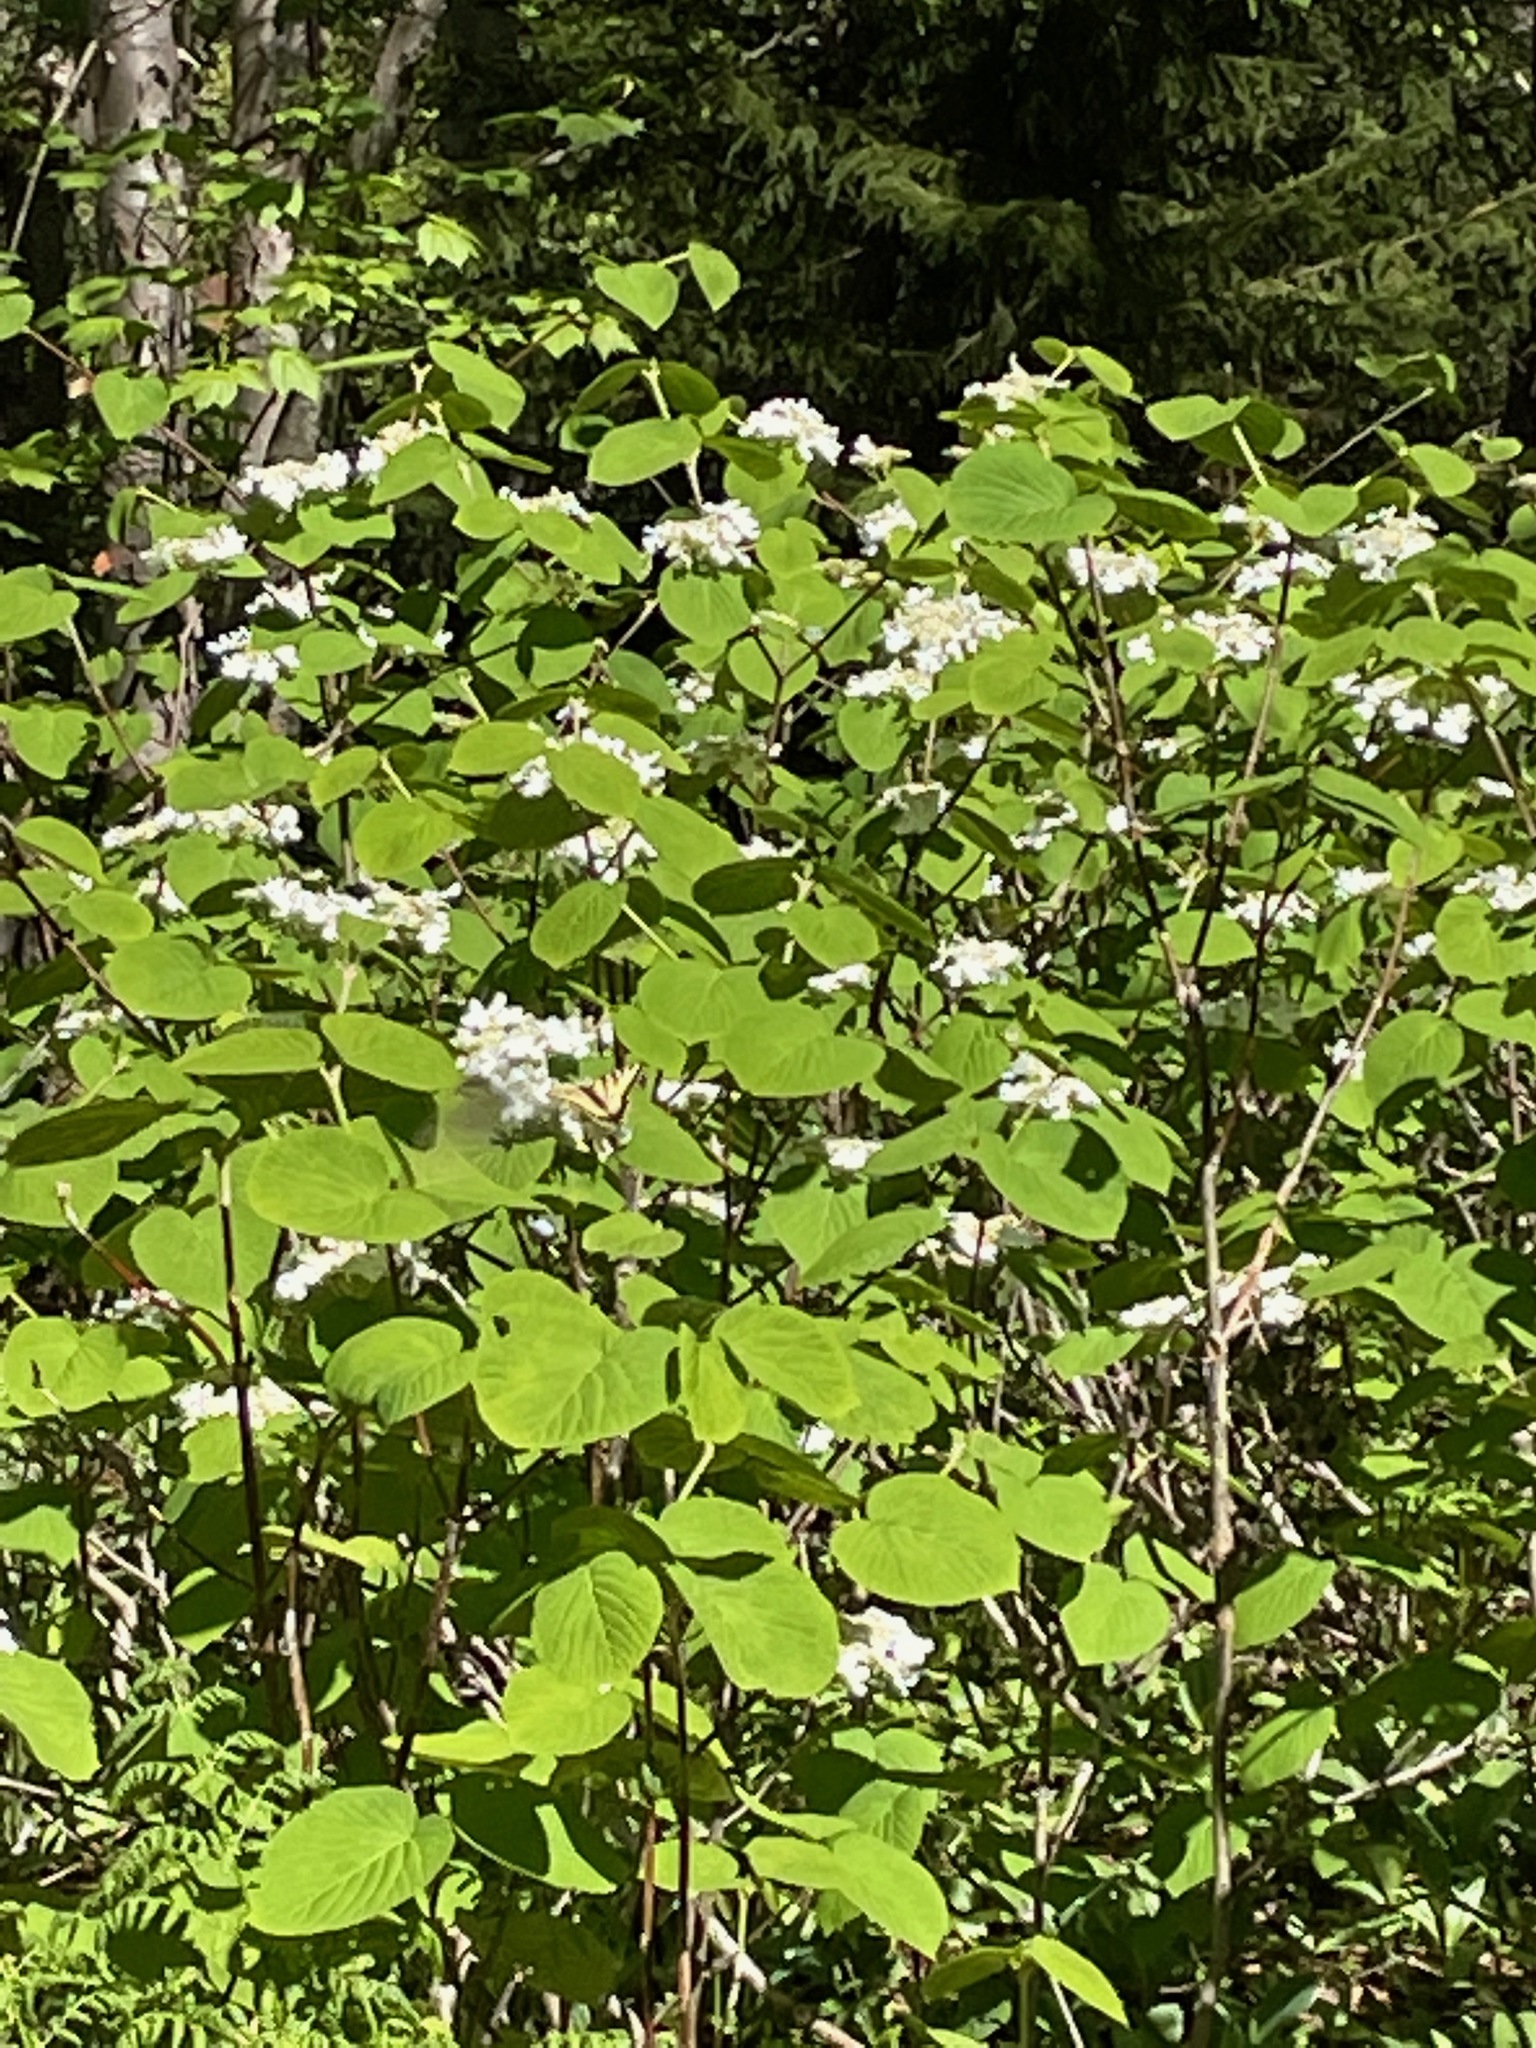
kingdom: Plantae
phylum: Tracheophyta
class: Magnoliopsida
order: Dipsacales
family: Viburnaceae
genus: Viburnum
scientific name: Viburnum lantanoides
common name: Hobblebush
